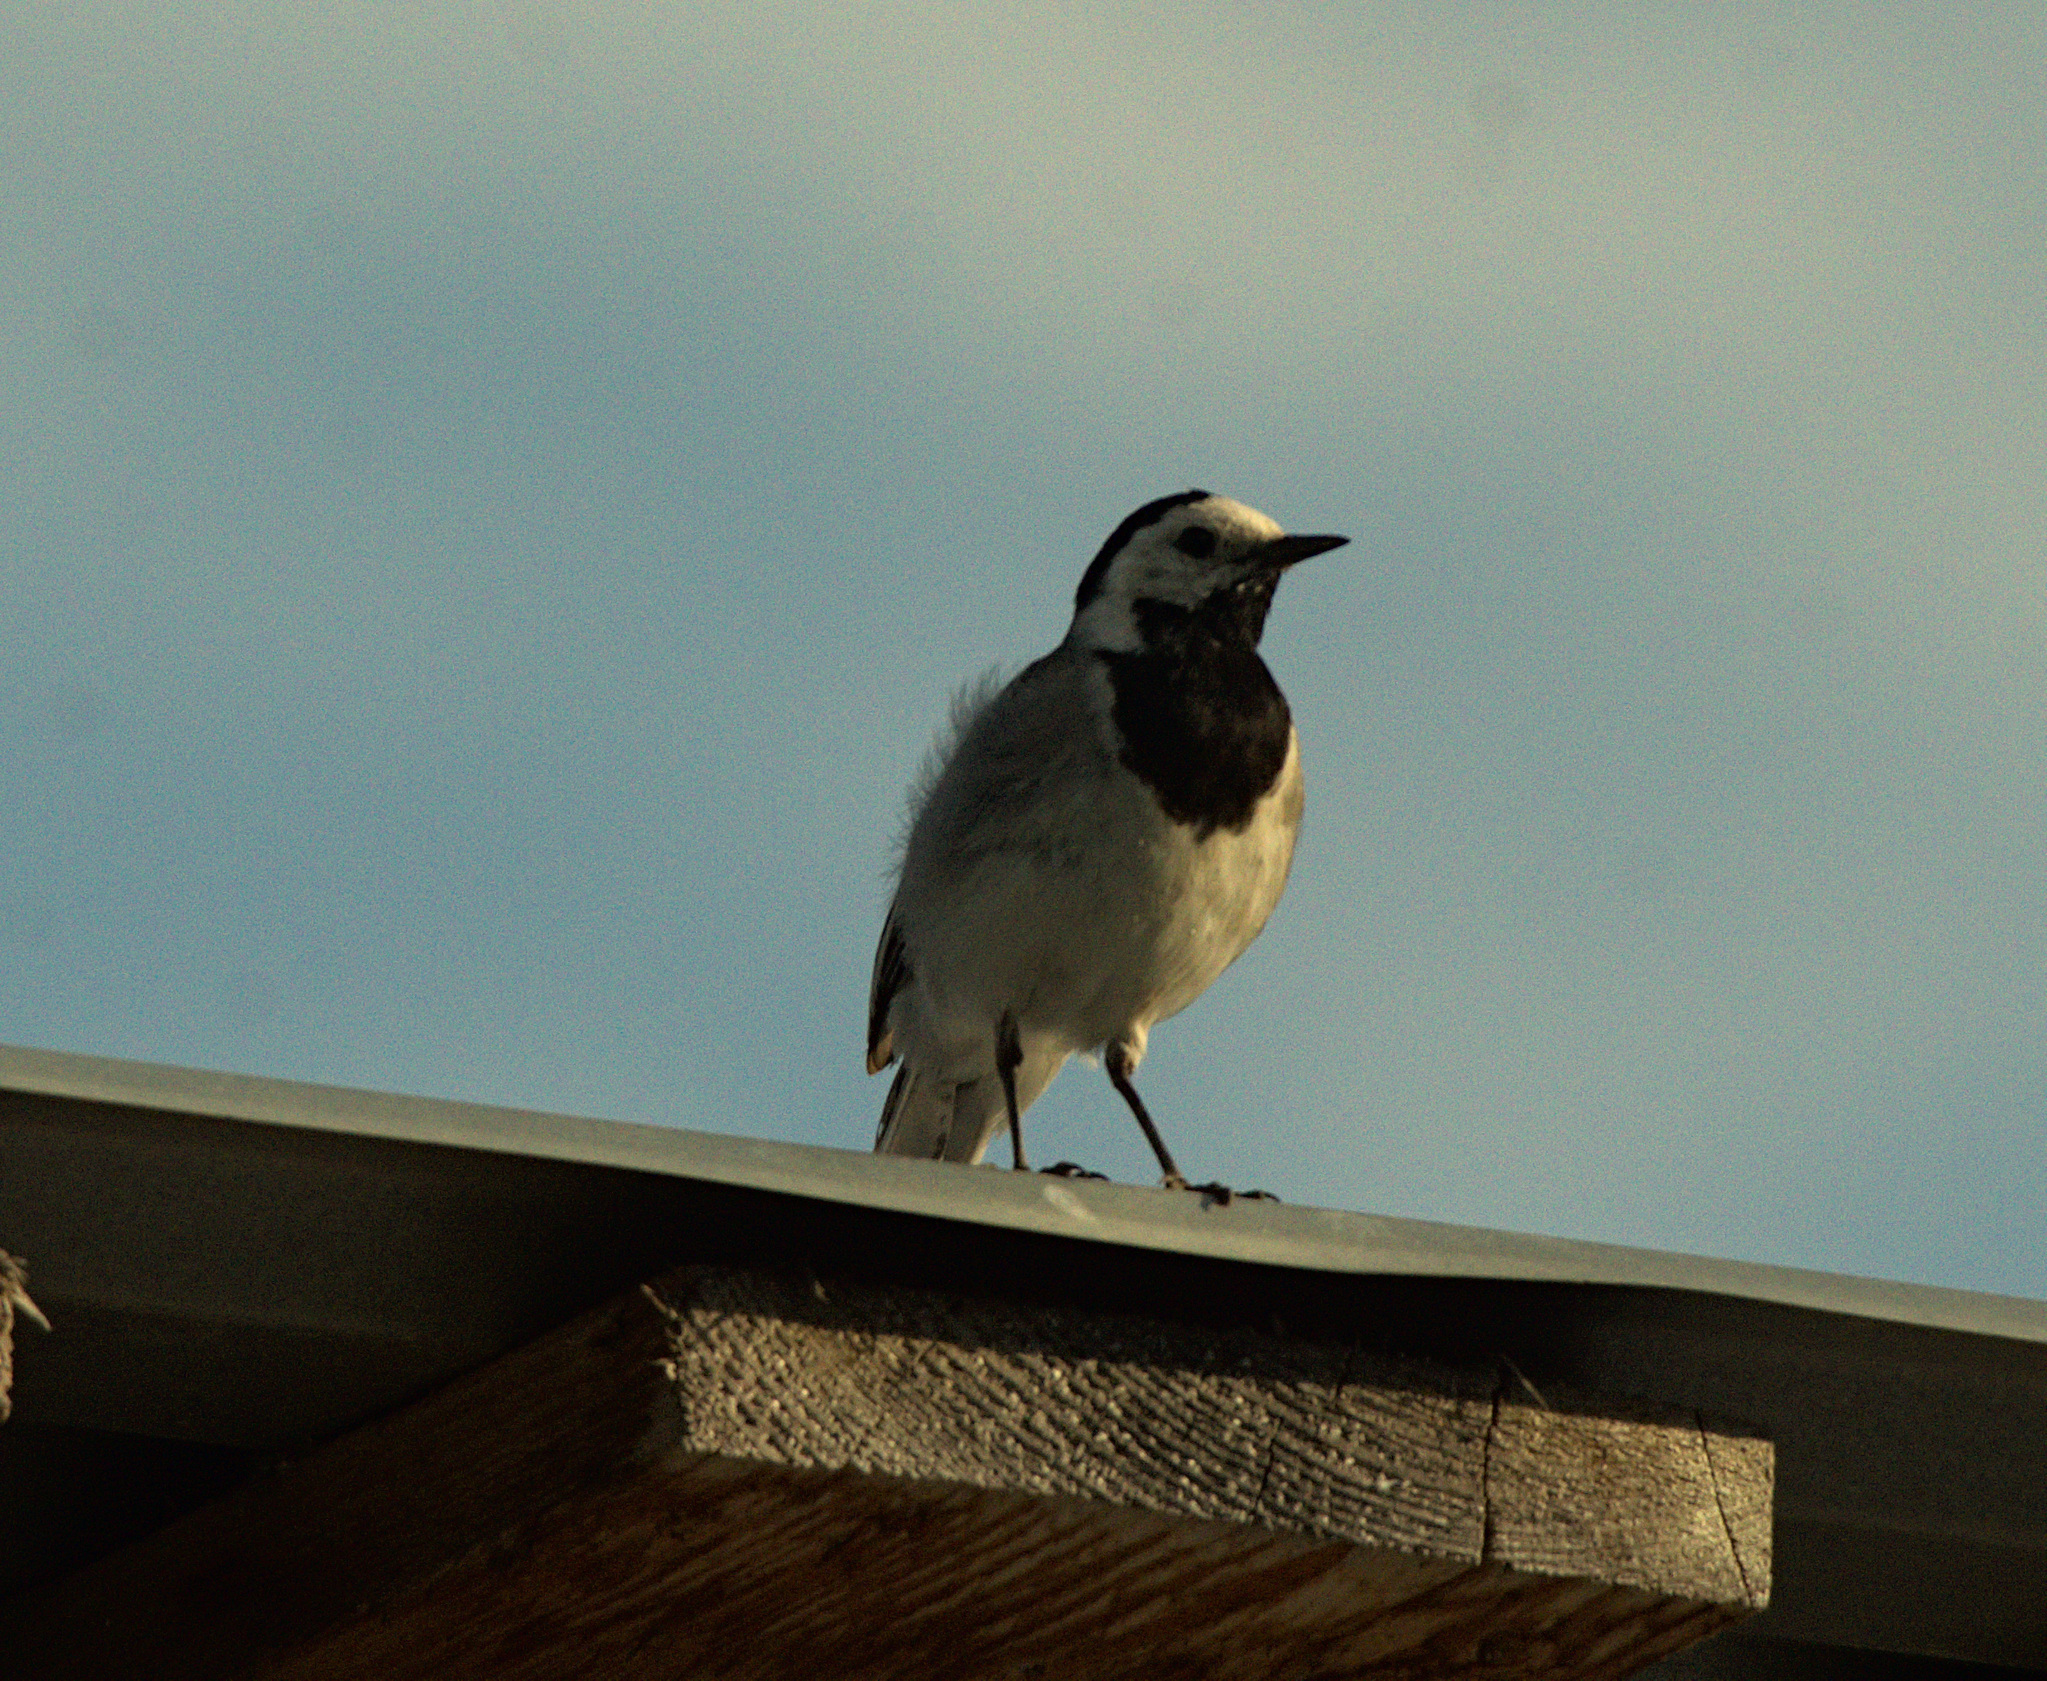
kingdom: Animalia
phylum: Chordata
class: Aves
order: Passeriformes
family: Motacillidae
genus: Motacilla
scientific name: Motacilla alba
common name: White wagtail
